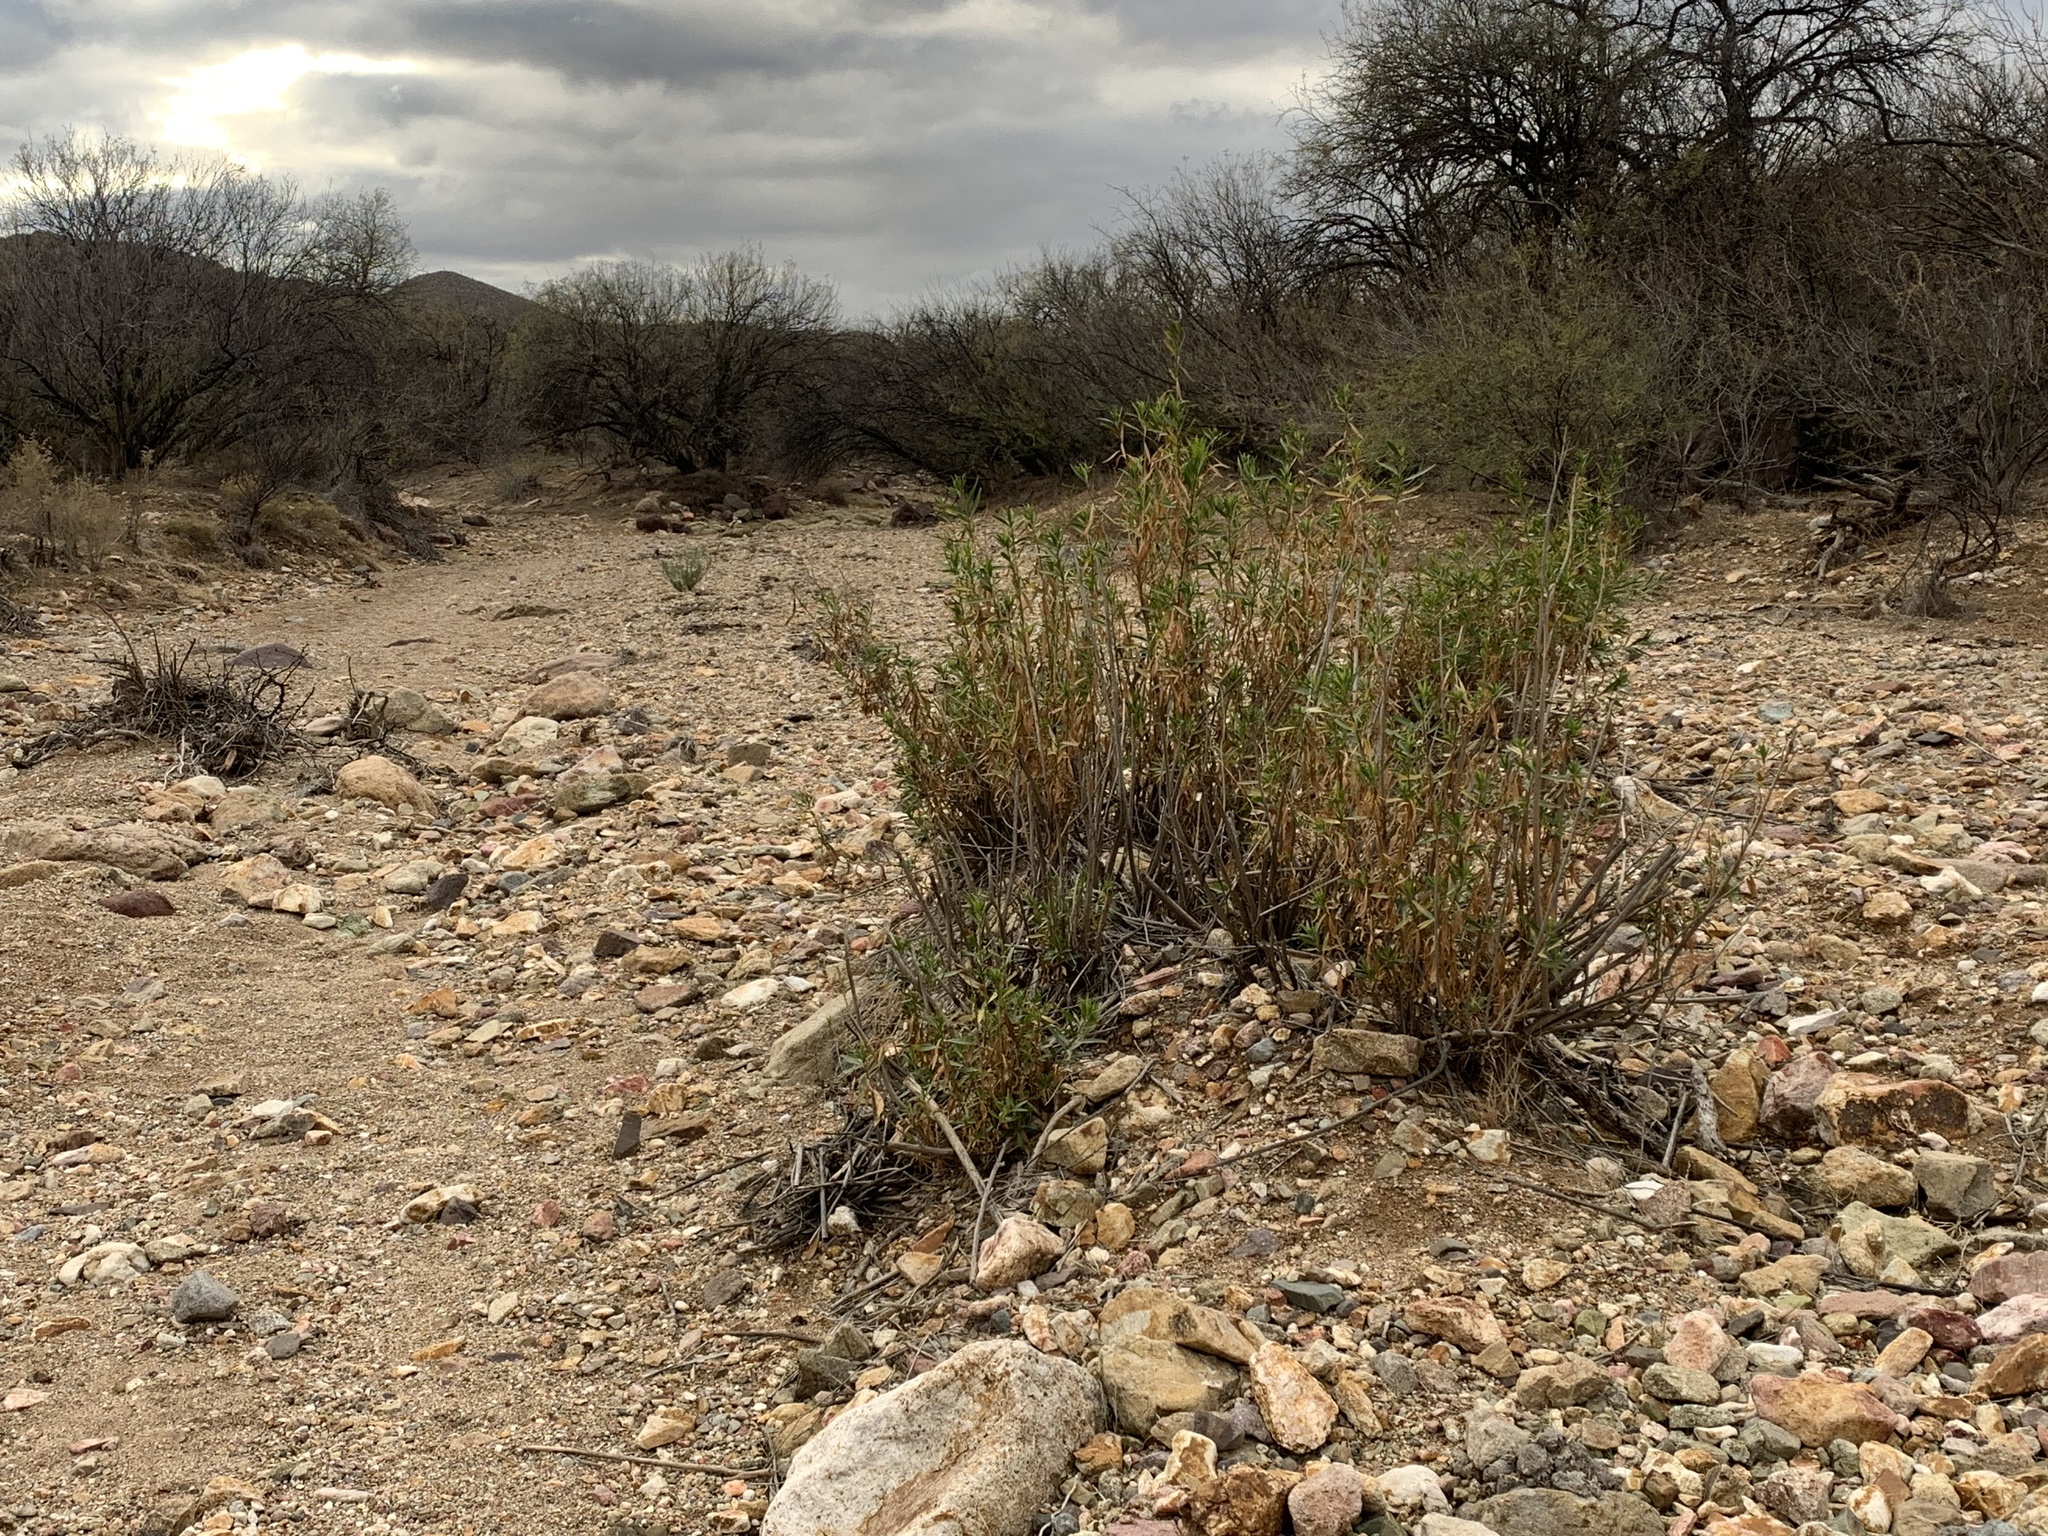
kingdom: Plantae
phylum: Tracheophyta
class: Magnoliopsida
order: Asterales
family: Asteraceae
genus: Baccharis
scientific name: Baccharis salicifolia
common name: Sticky baccharis
